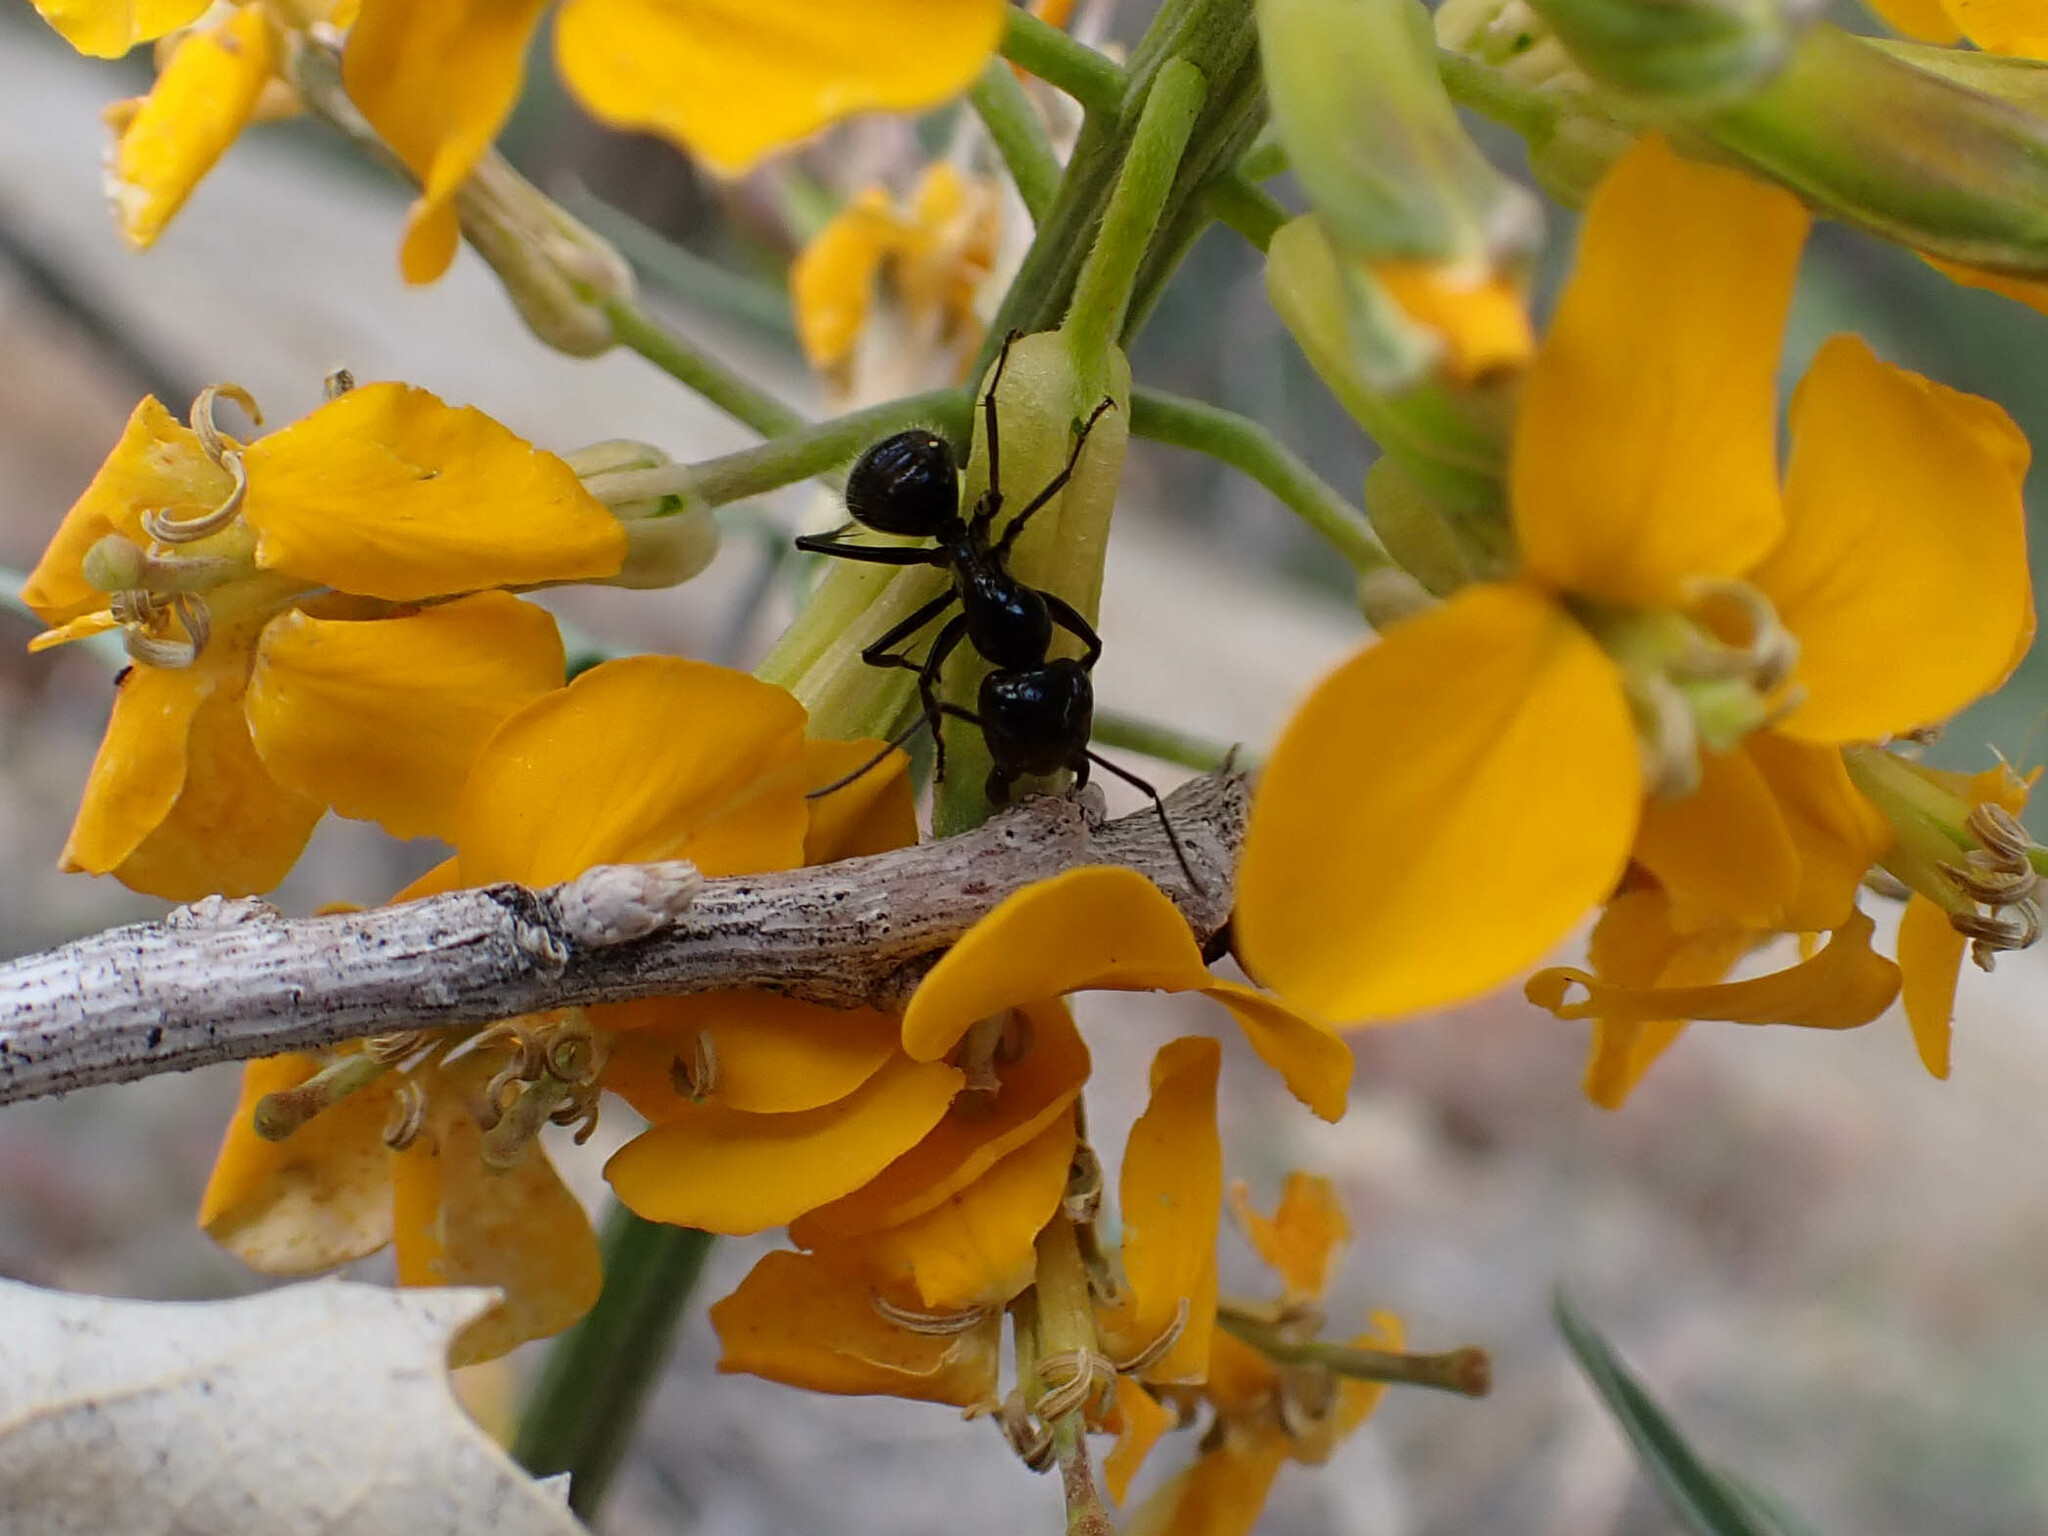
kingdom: Animalia
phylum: Arthropoda
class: Insecta
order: Hymenoptera
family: Formicidae
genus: Camponotus
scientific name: Camponotus
